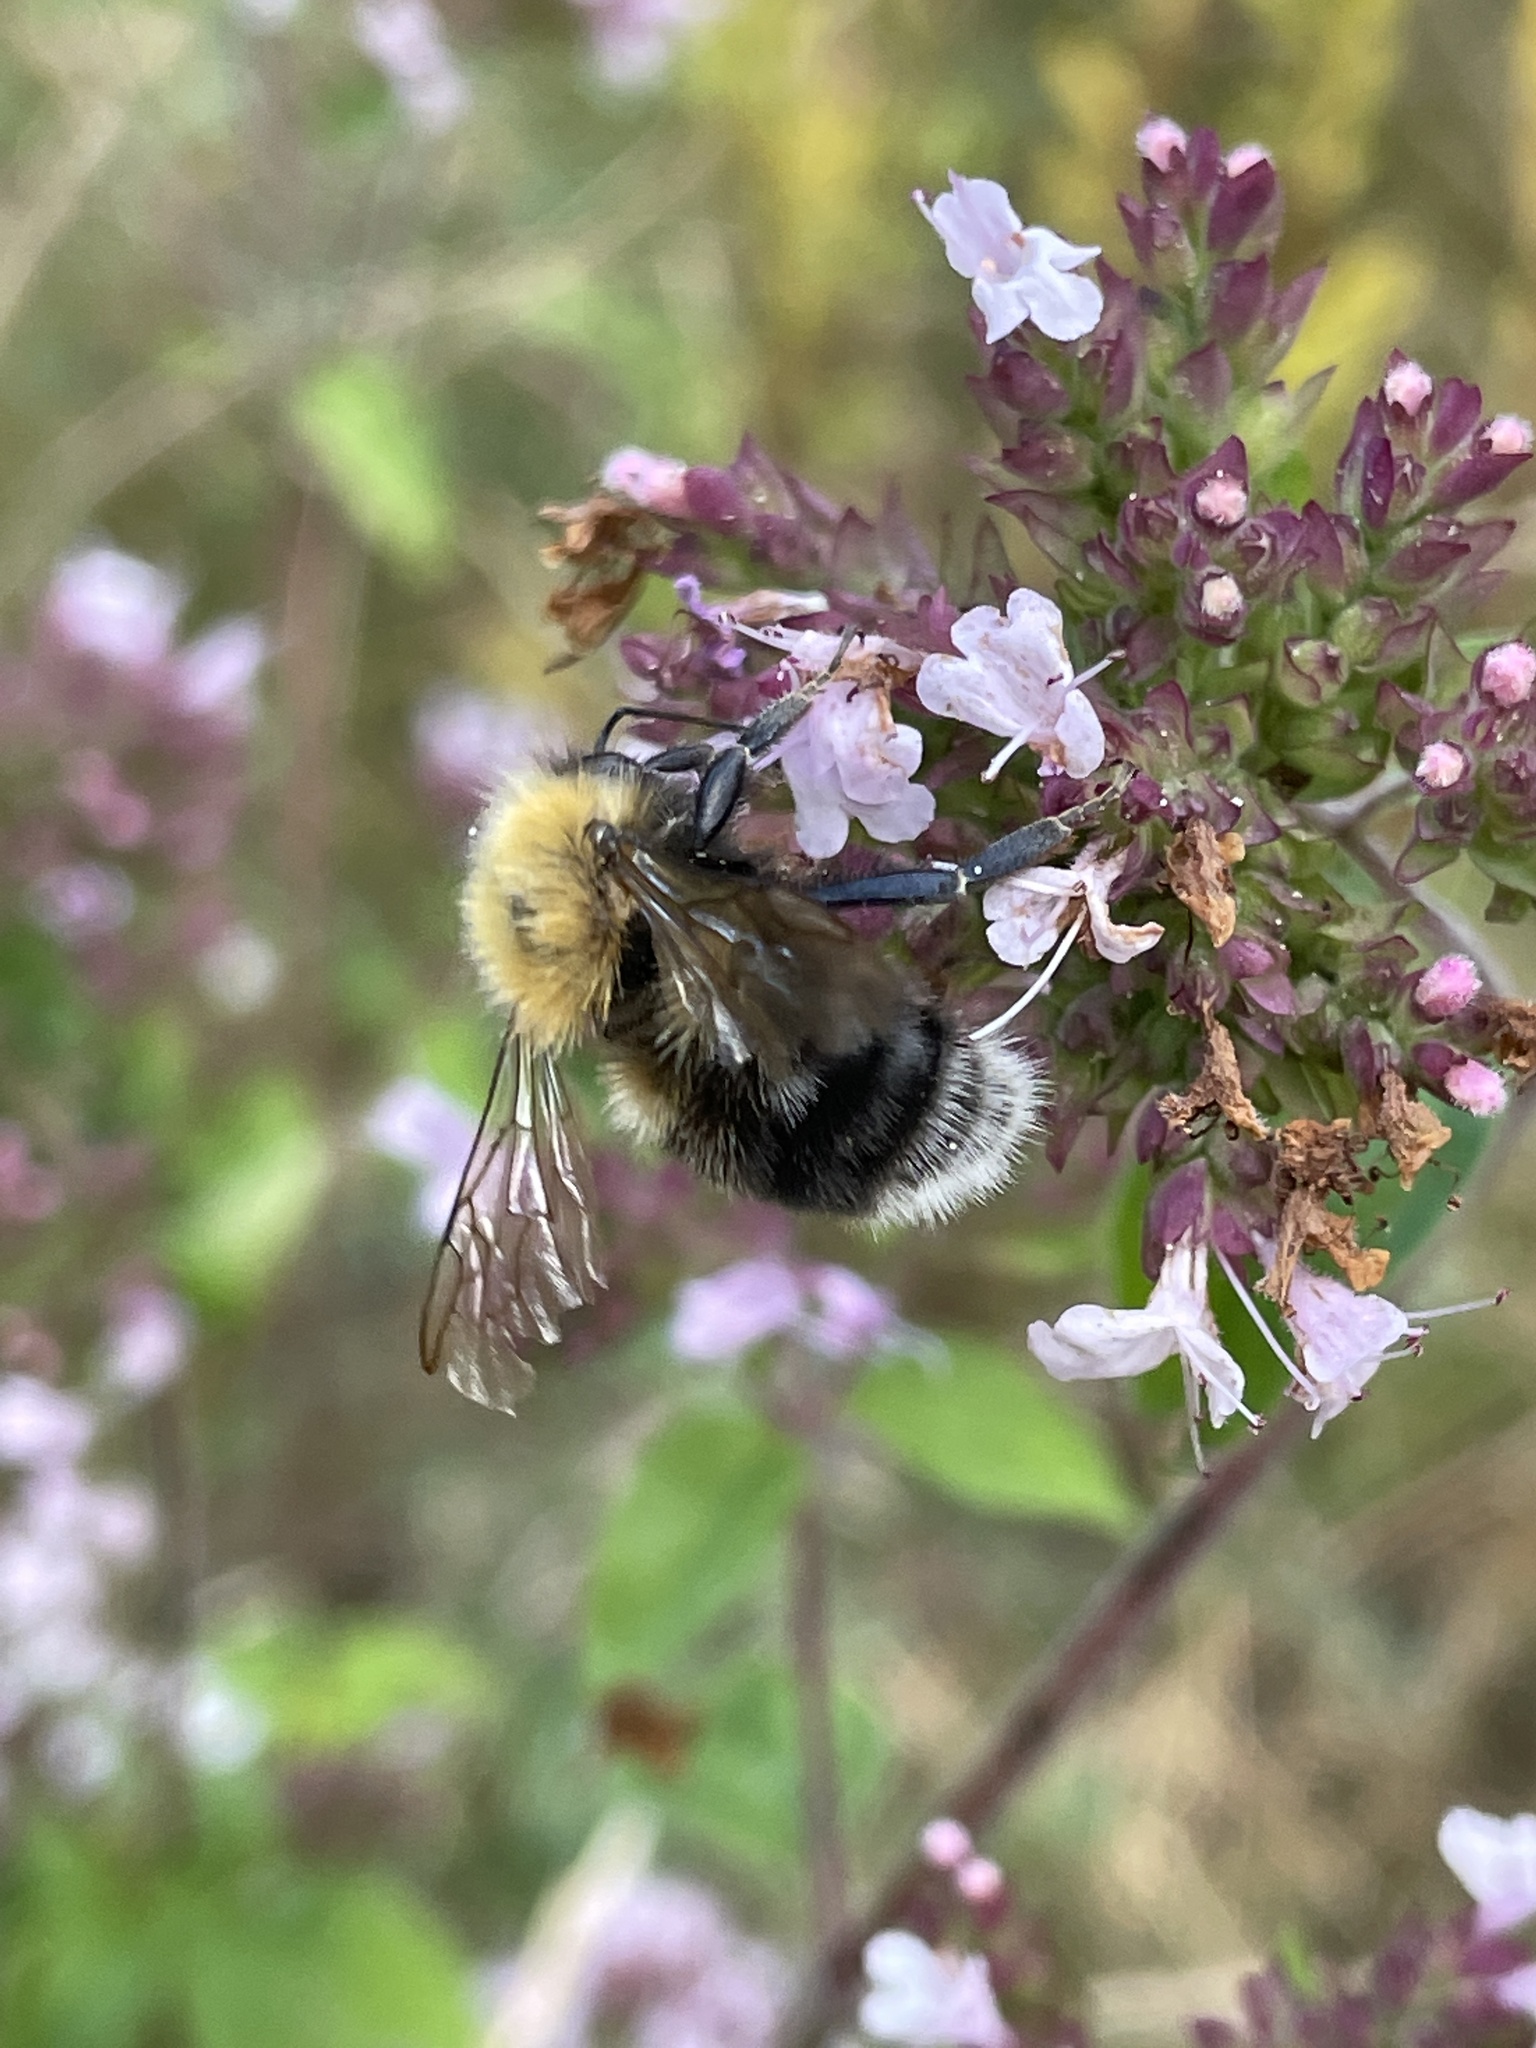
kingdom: Animalia
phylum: Arthropoda
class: Insecta
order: Hymenoptera
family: Apidae
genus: Bombus
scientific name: Bombus hypnorum
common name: New garden bumblebee
